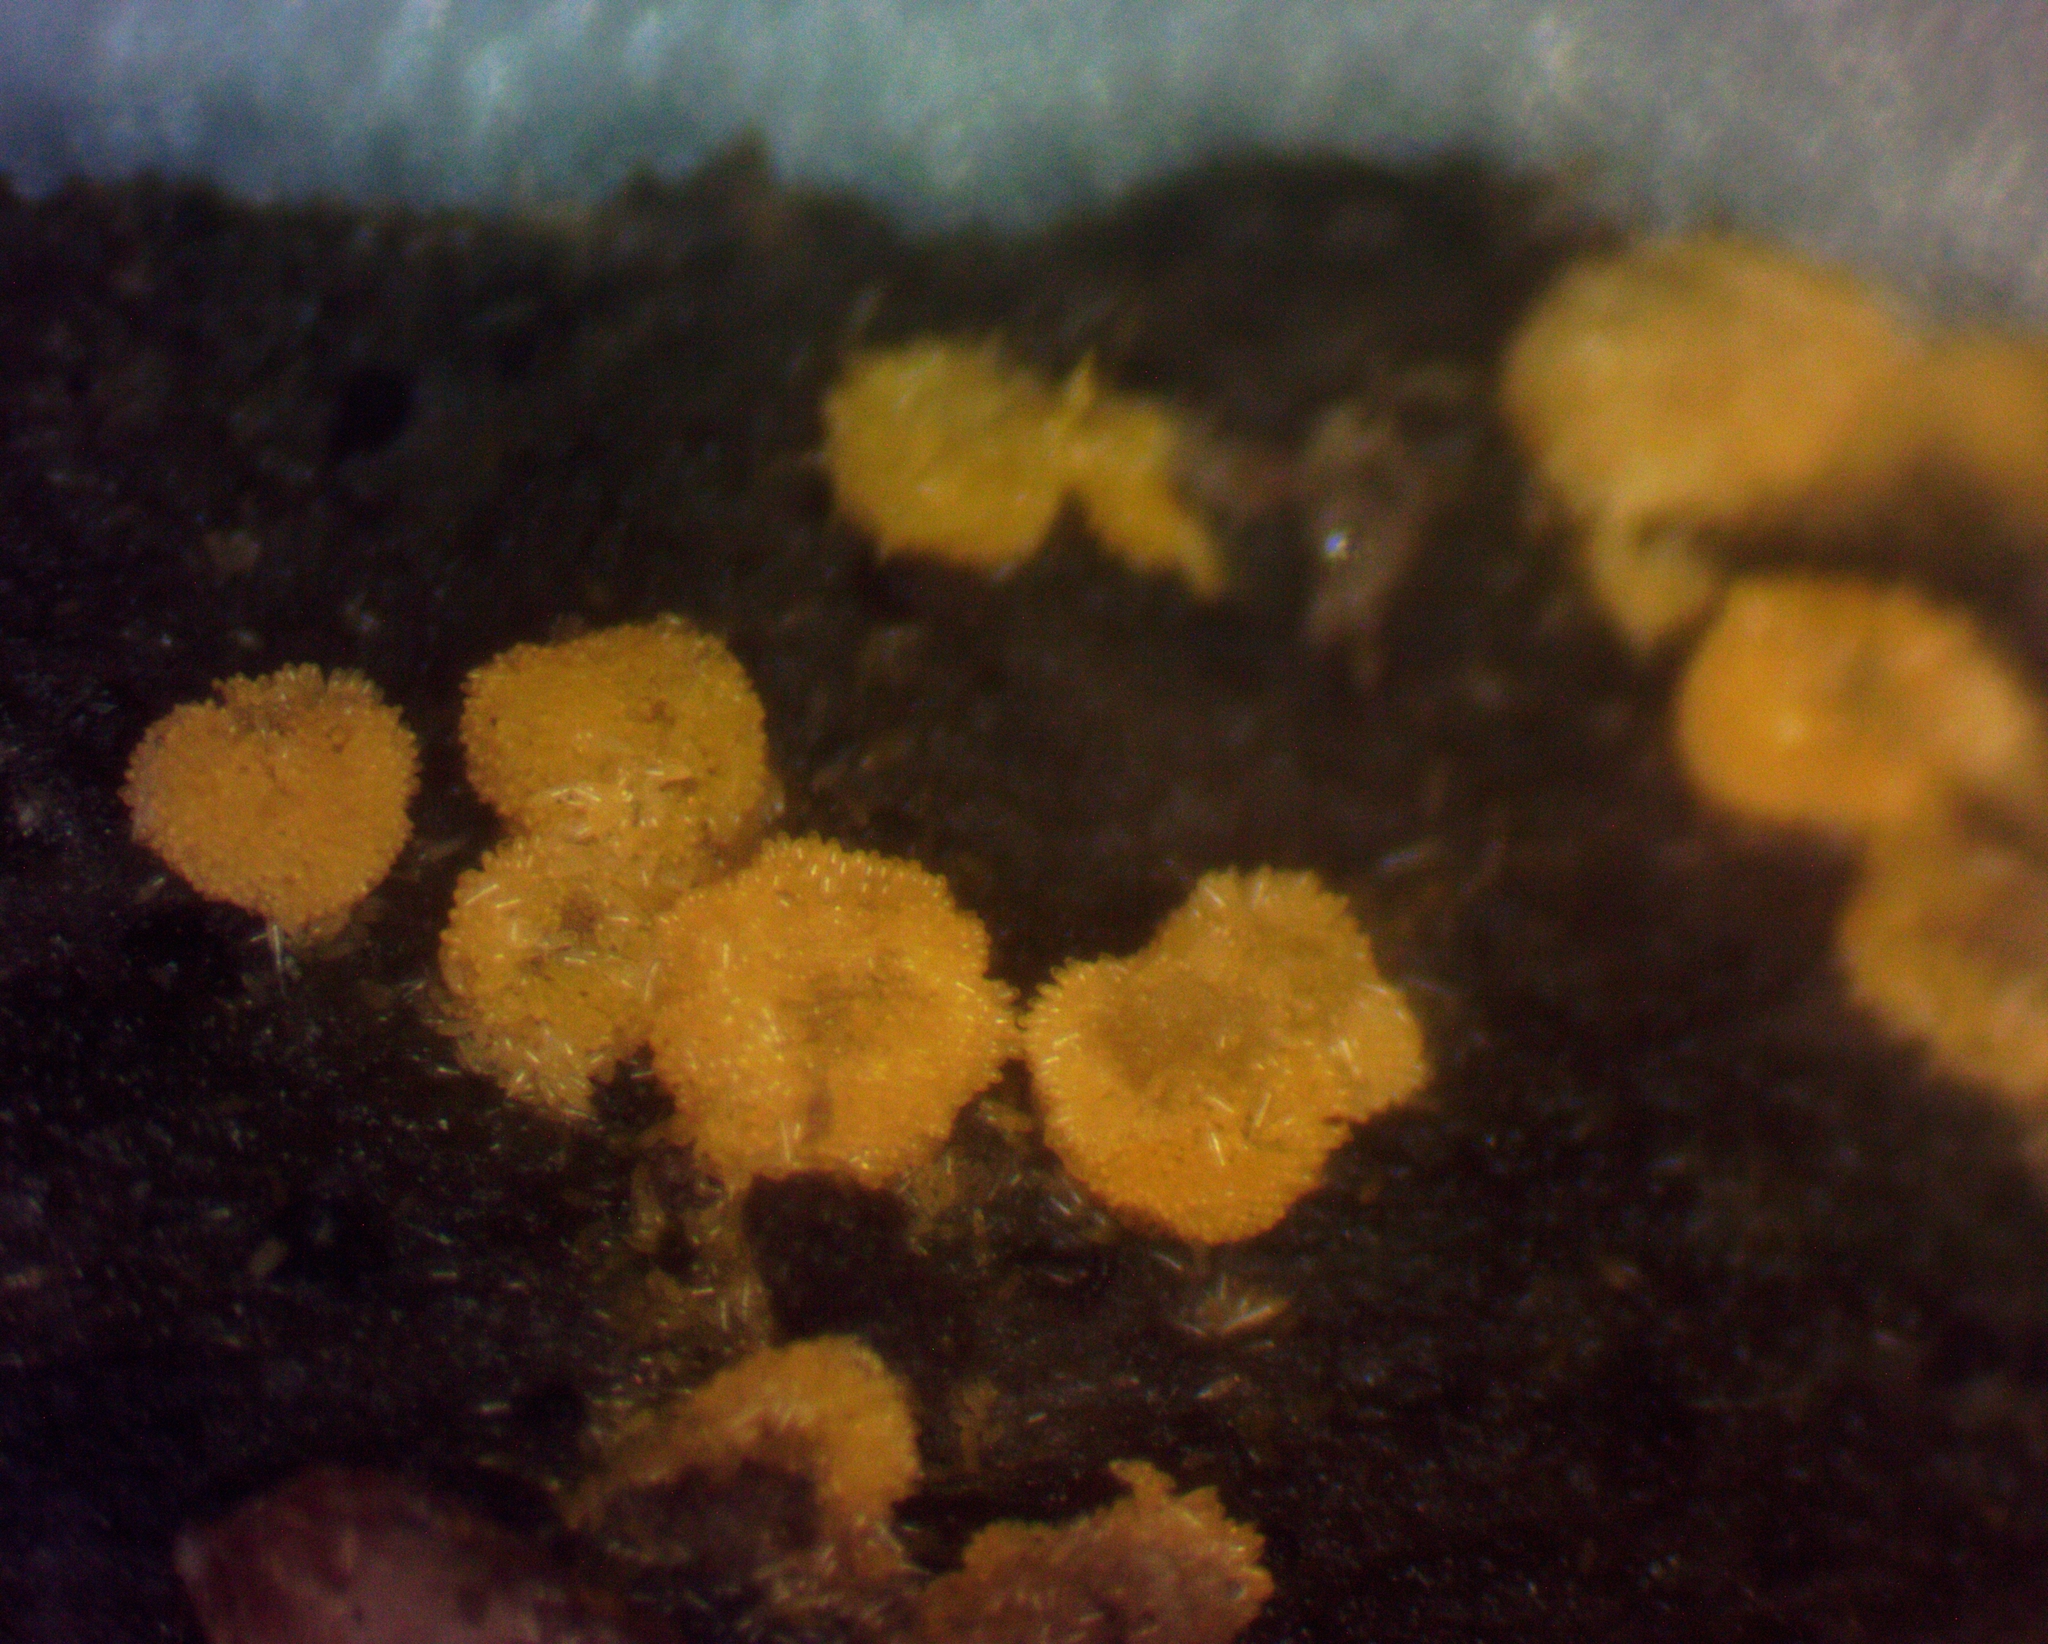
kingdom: Fungi
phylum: Ascomycota
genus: Bactridium
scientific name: Bactridium flavum
